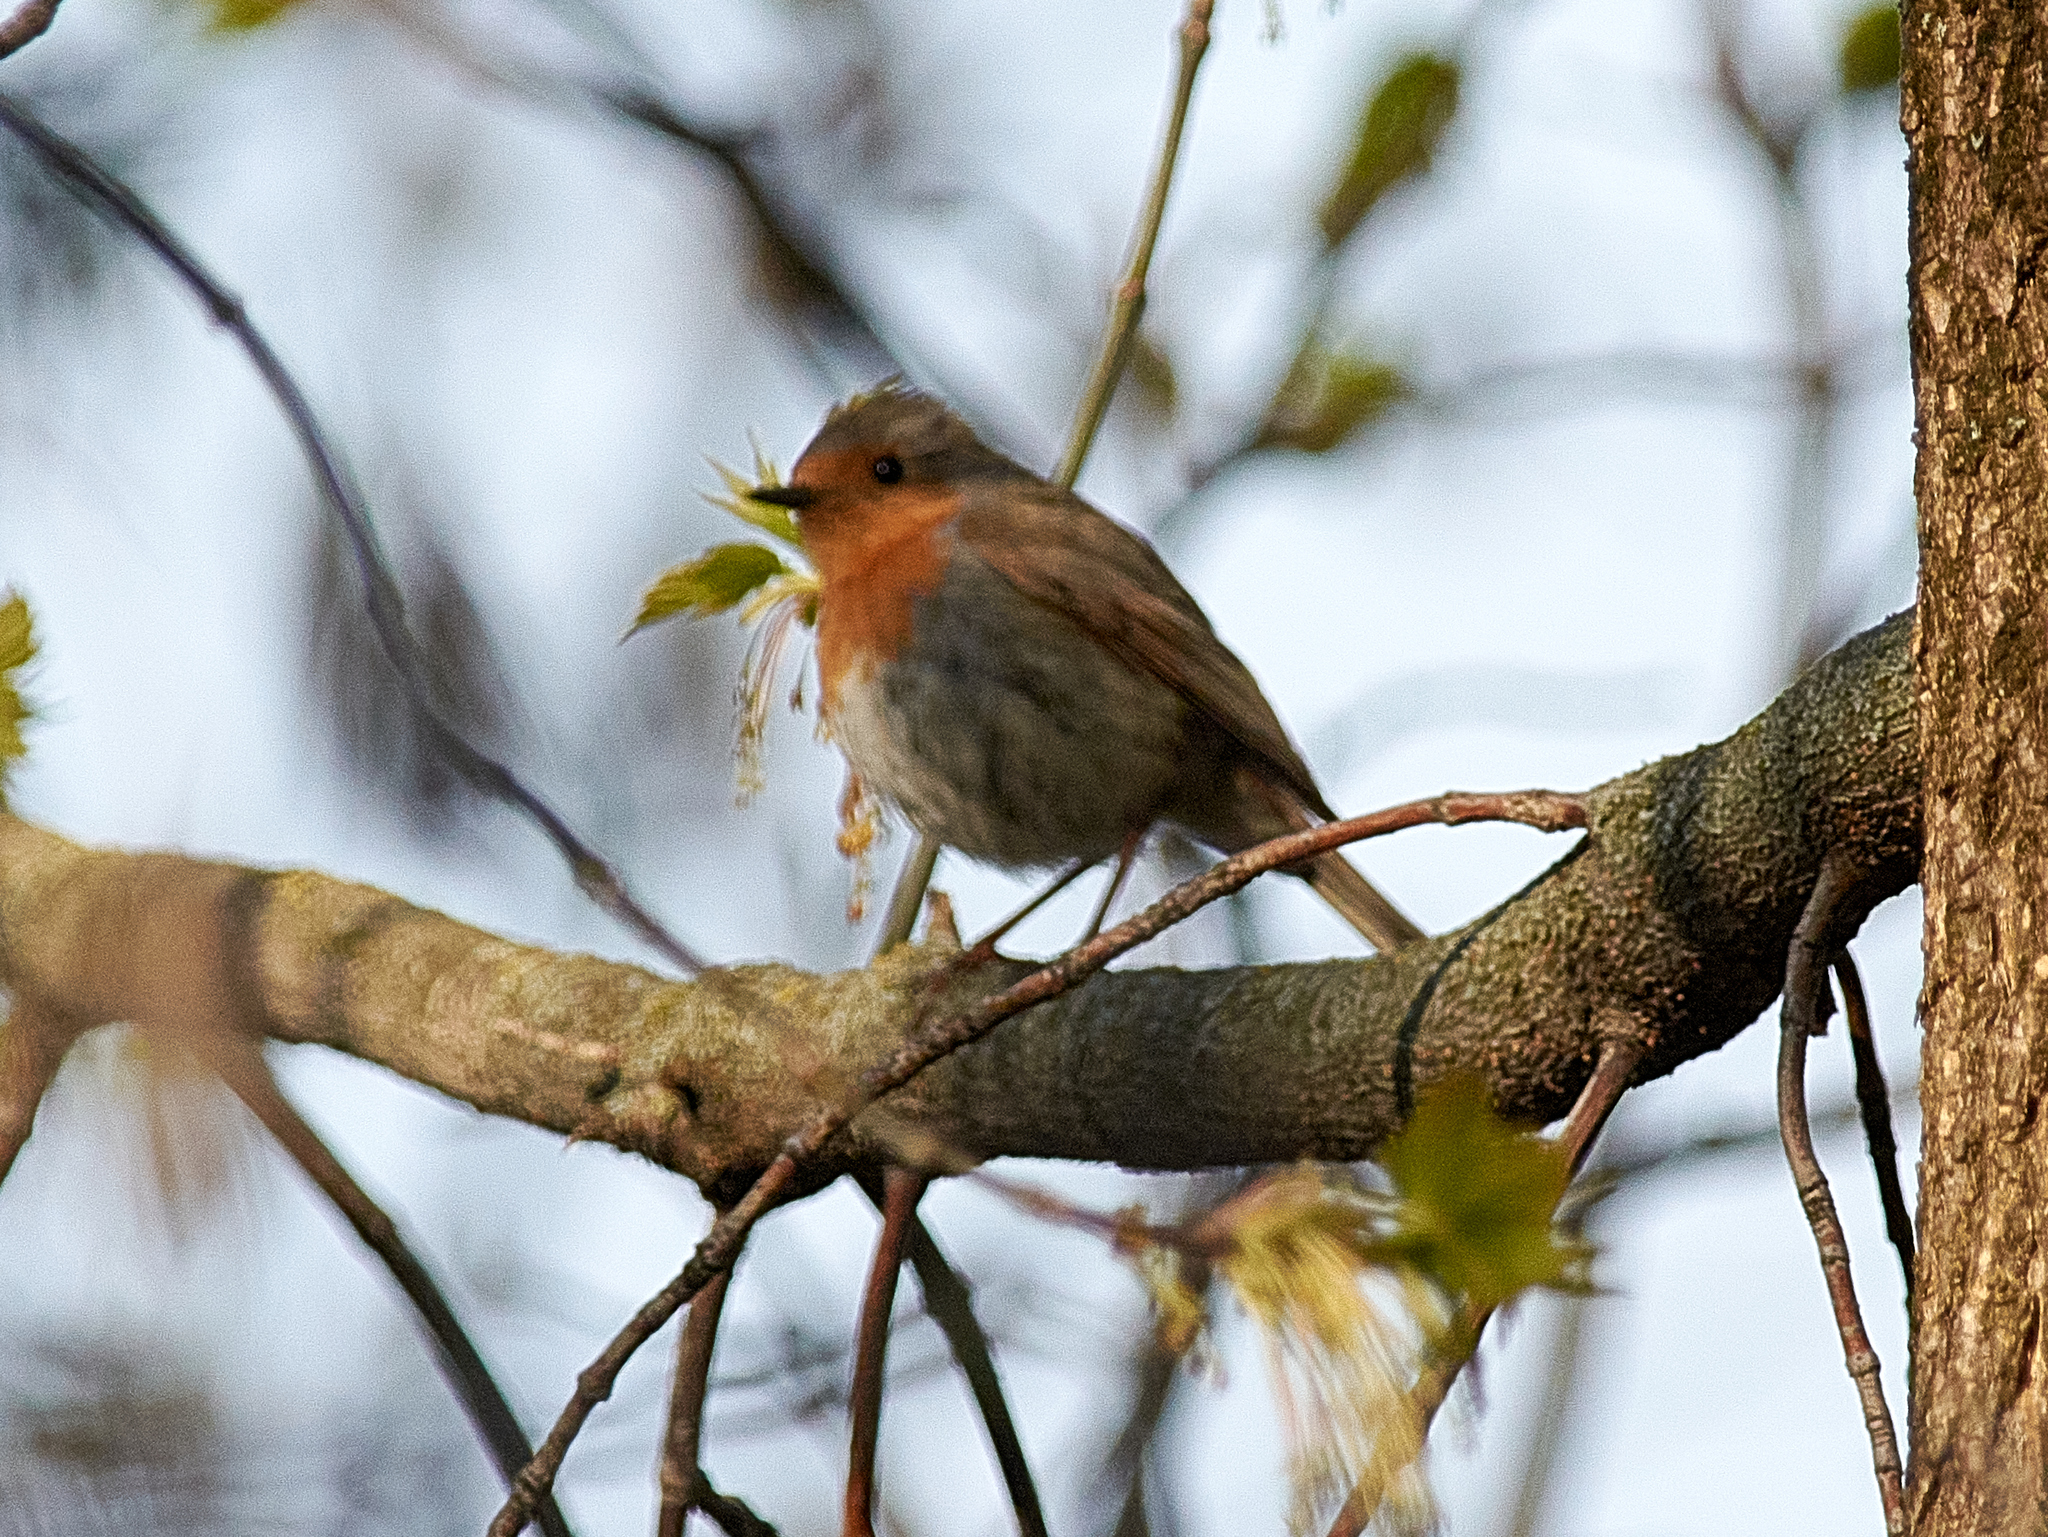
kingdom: Animalia
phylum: Chordata
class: Aves
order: Passeriformes
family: Muscicapidae
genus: Erithacus
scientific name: Erithacus rubecula
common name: European robin
